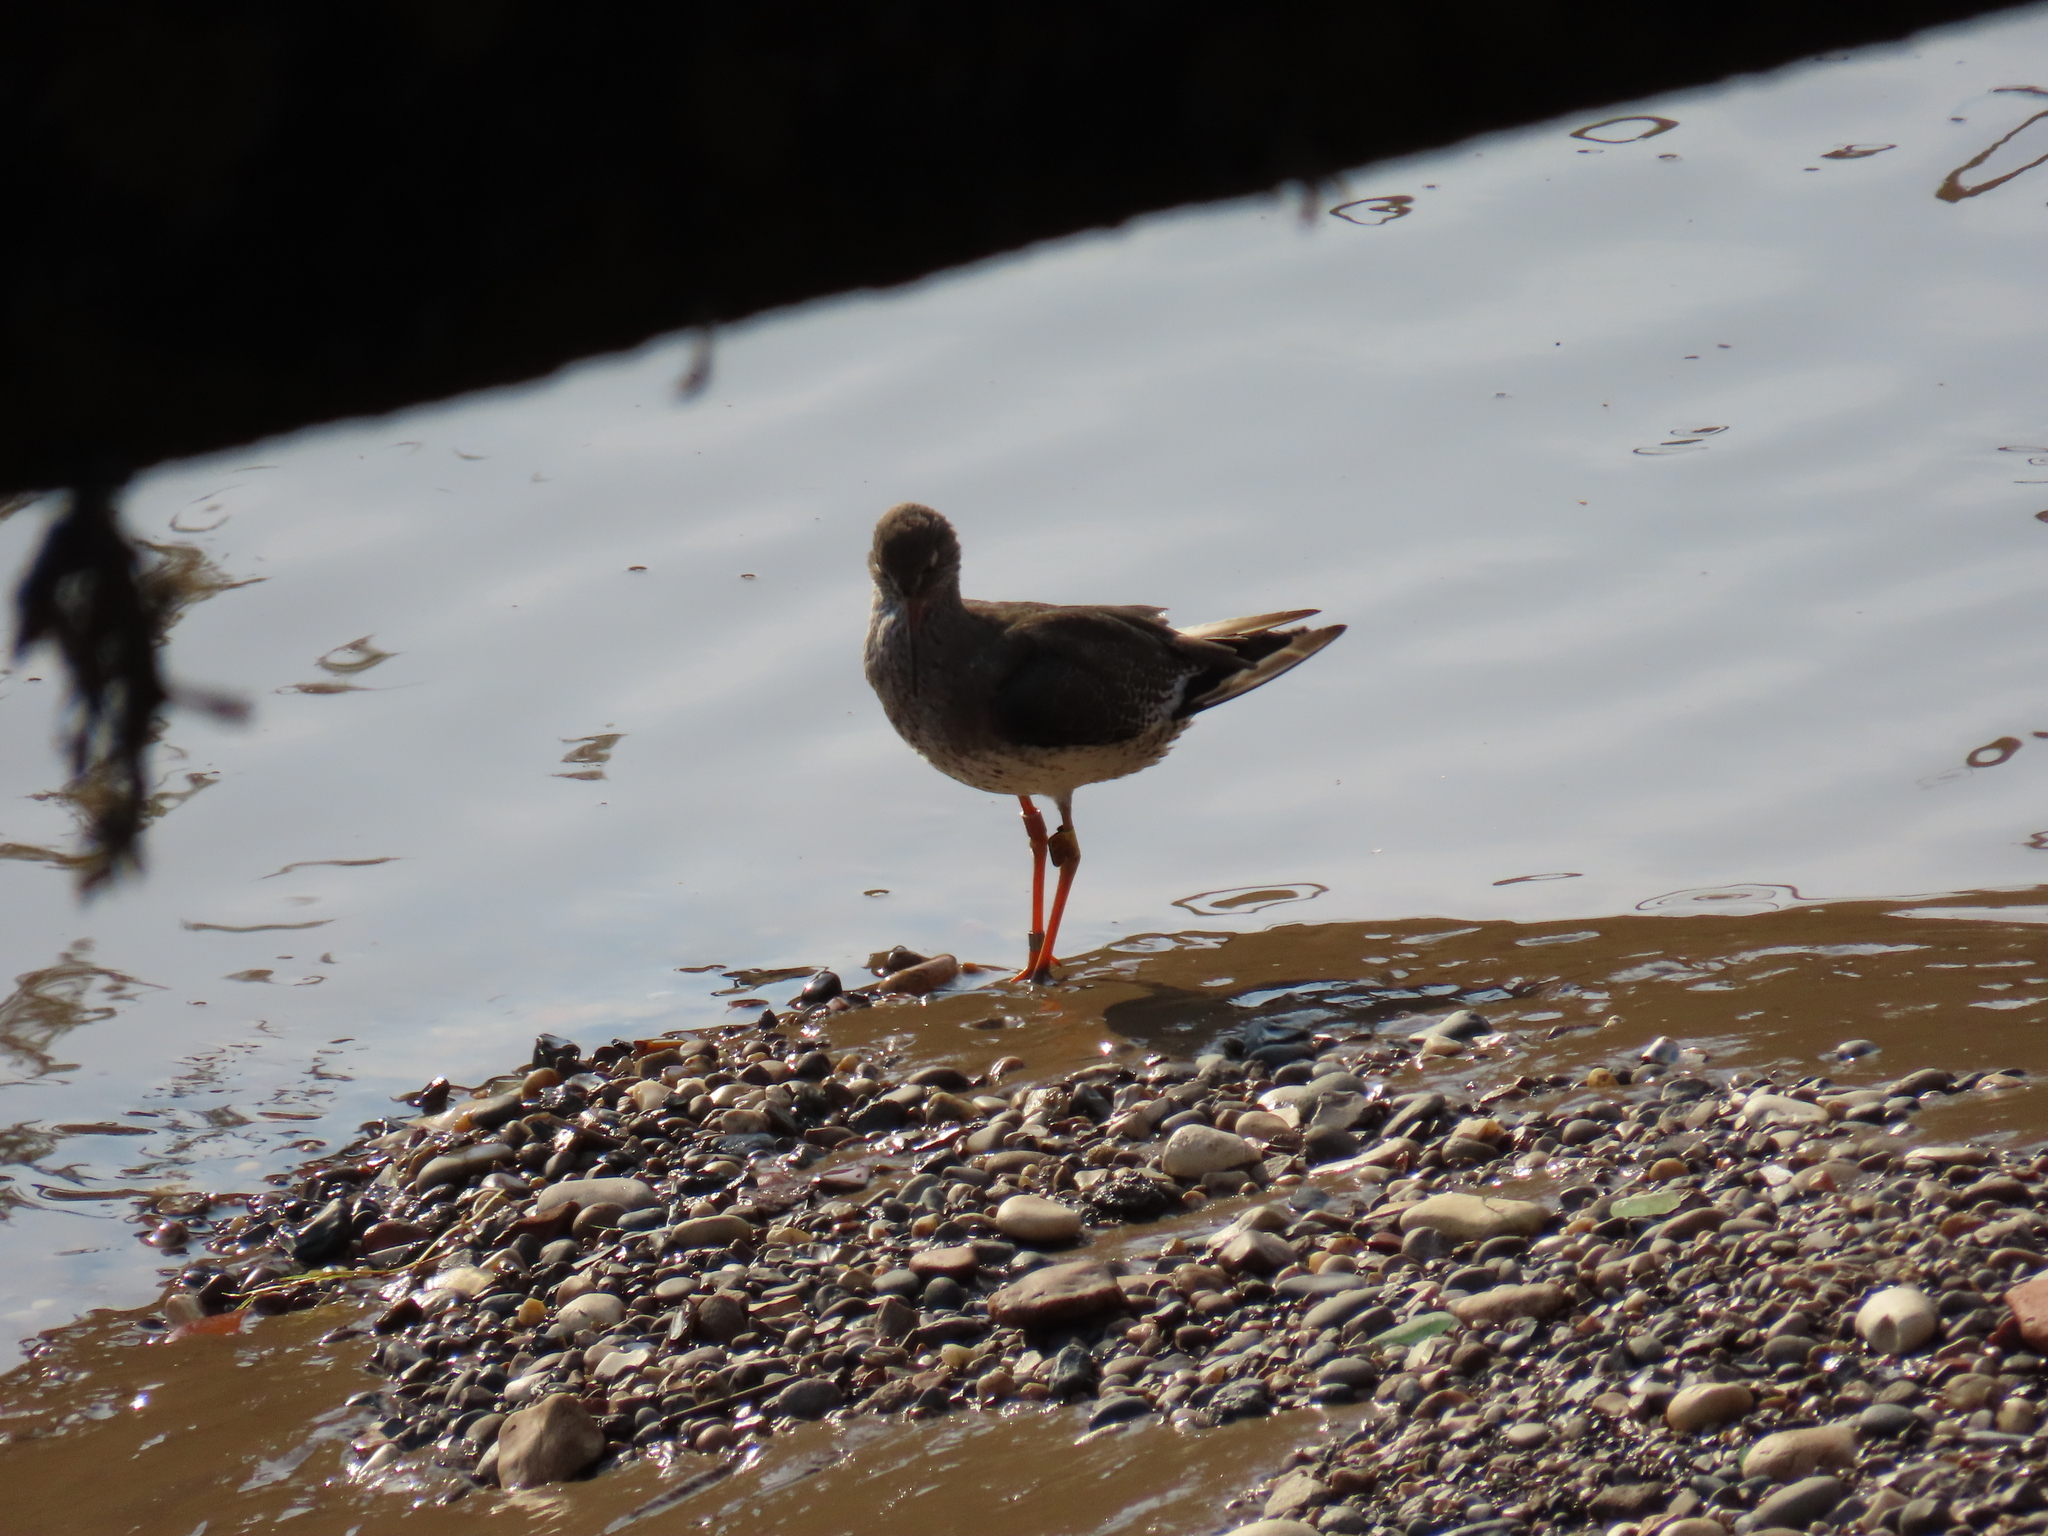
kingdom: Animalia
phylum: Chordata
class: Aves
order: Charadriiformes
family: Scolopacidae
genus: Tringa
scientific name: Tringa totanus
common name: Common redshank
